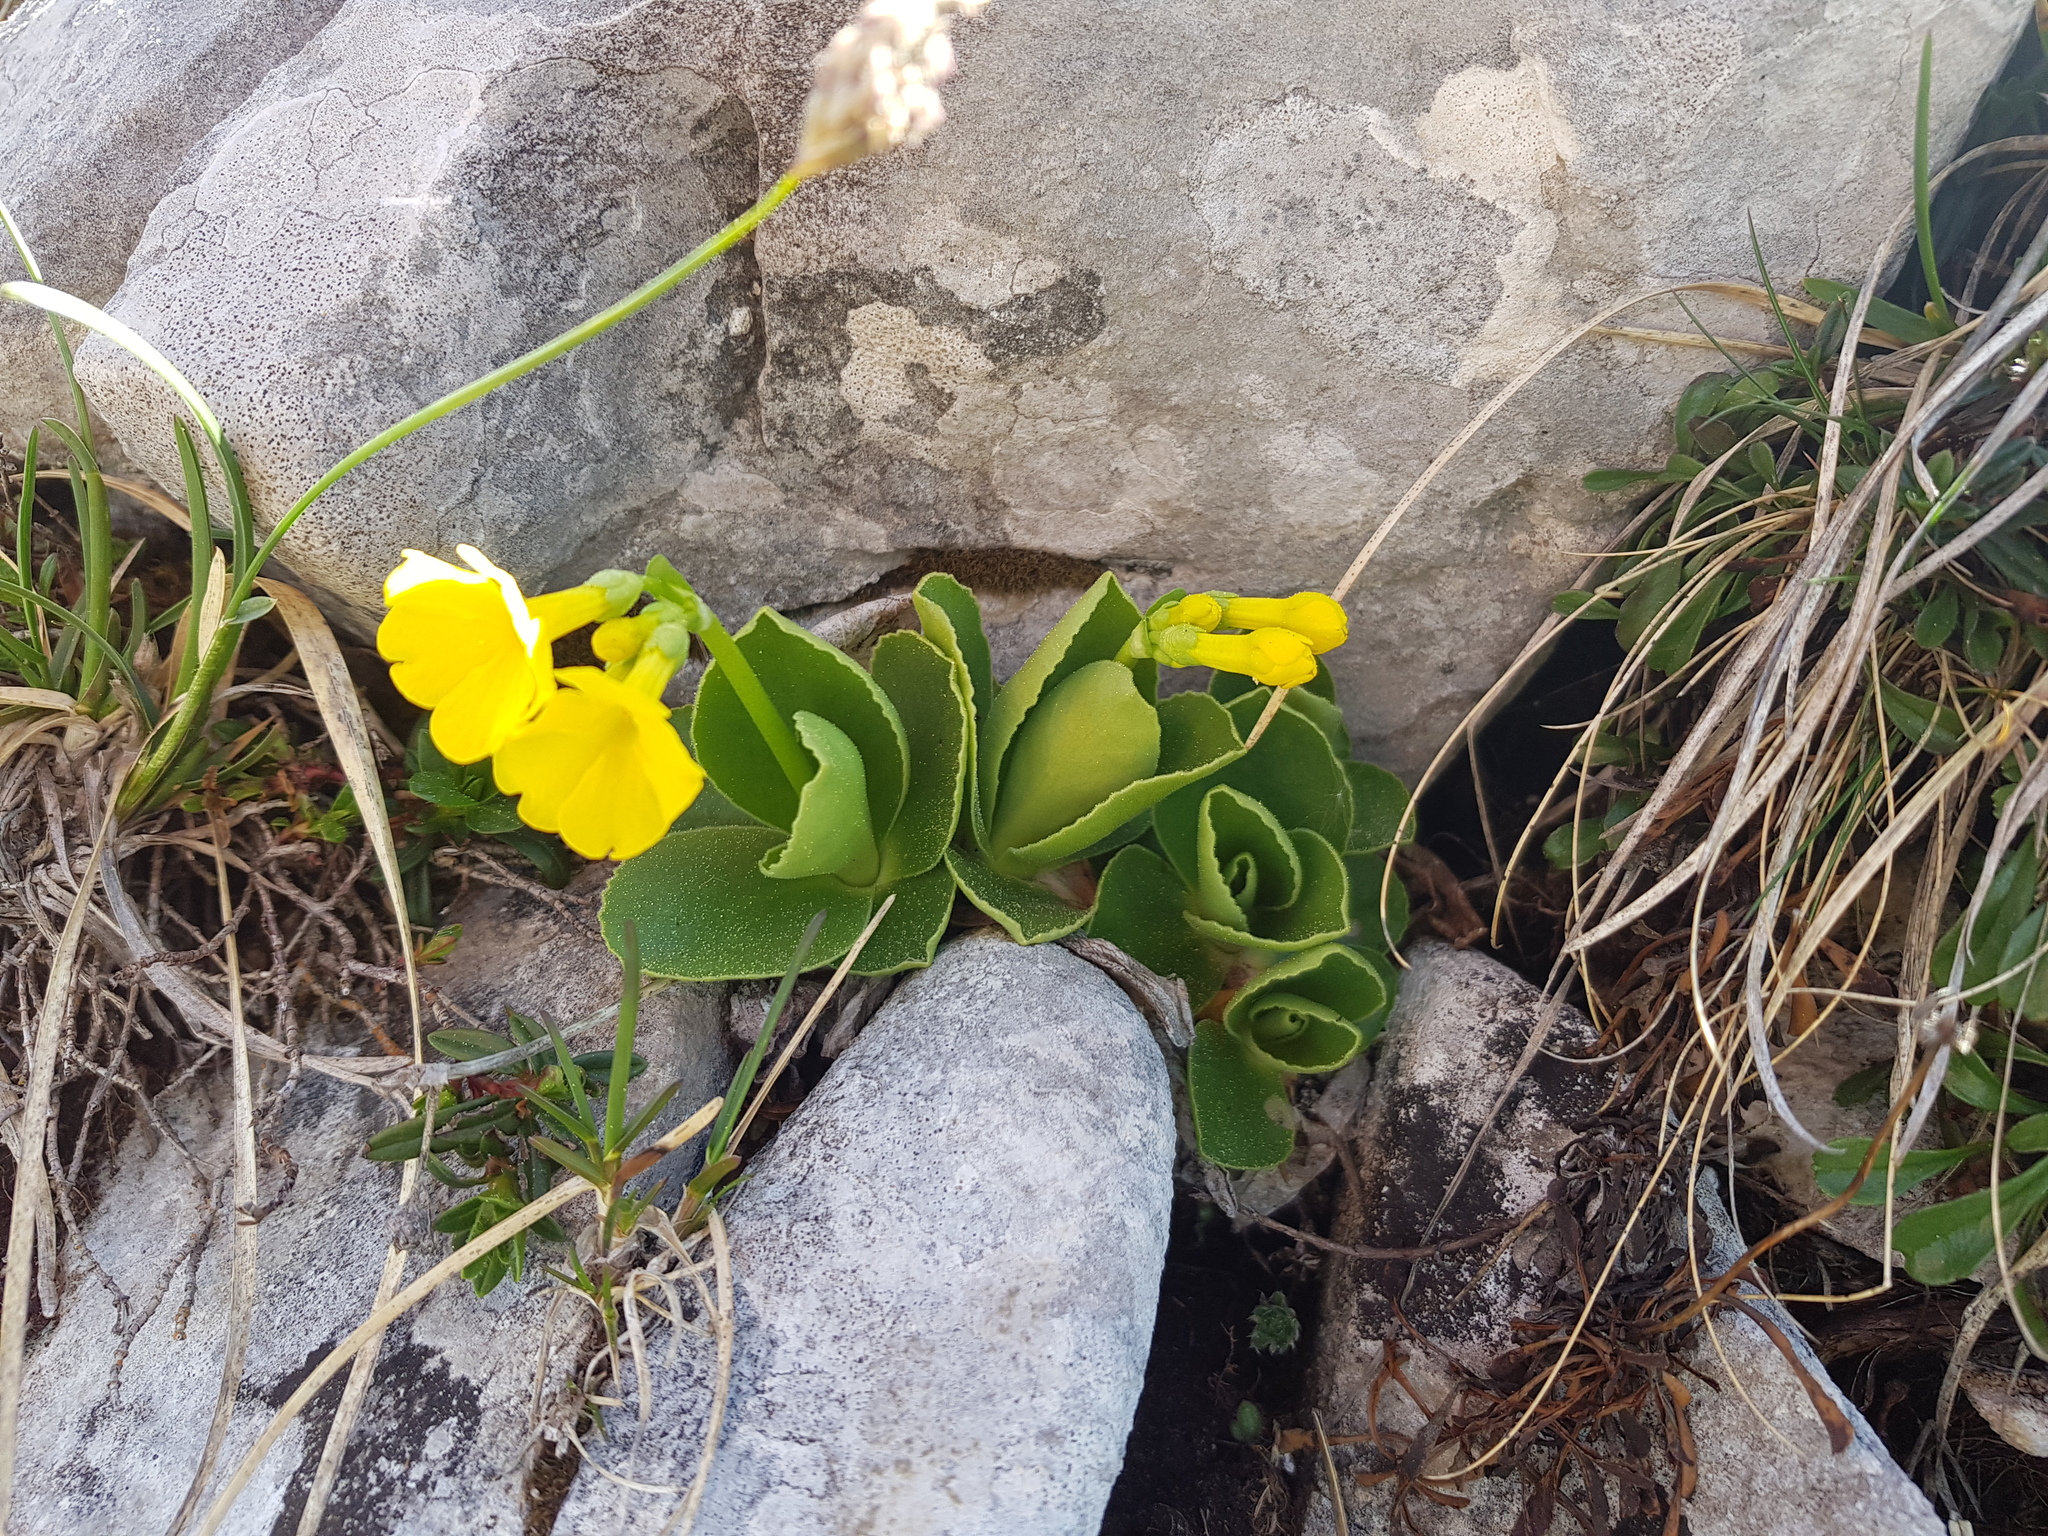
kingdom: Plantae
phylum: Tracheophyta
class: Magnoliopsida
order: Ericales
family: Primulaceae
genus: Primula
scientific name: Primula auricula
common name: Auricula
